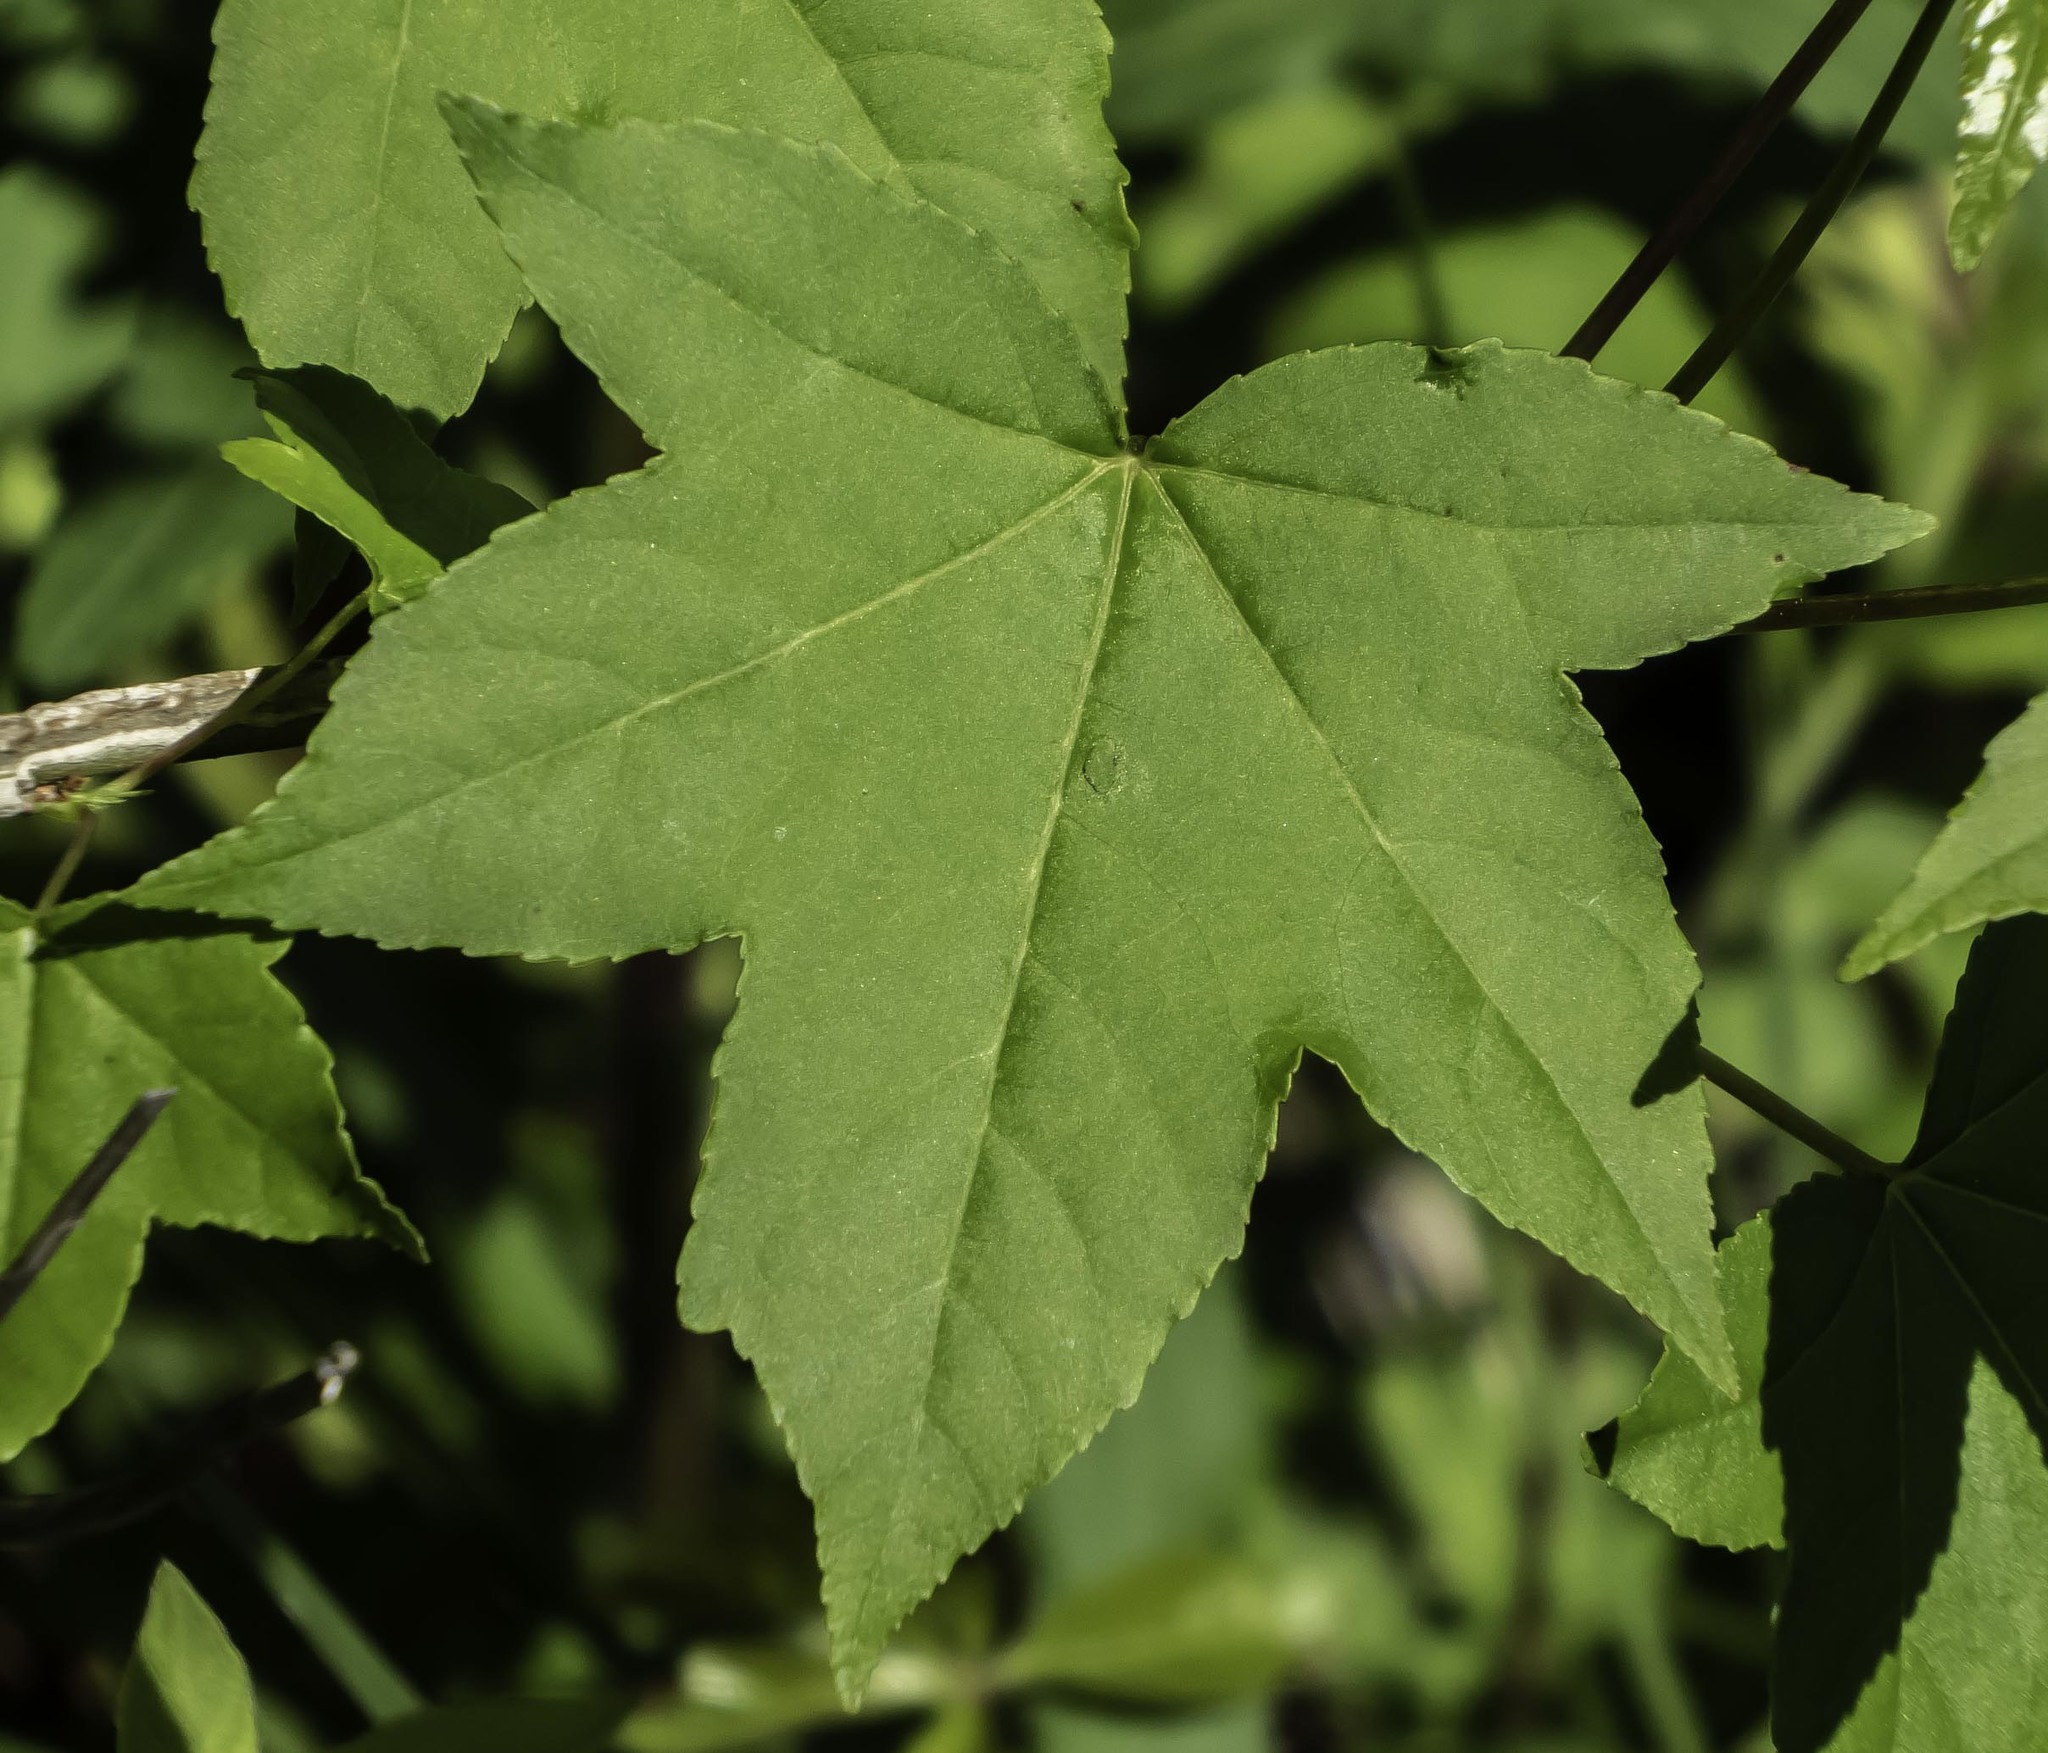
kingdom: Plantae
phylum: Tracheophyta
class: Magnoliopsida
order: Saxifragales
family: Altingiaceae
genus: Liquidambar
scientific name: Liquidambar styraciflua
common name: Sweet gum
